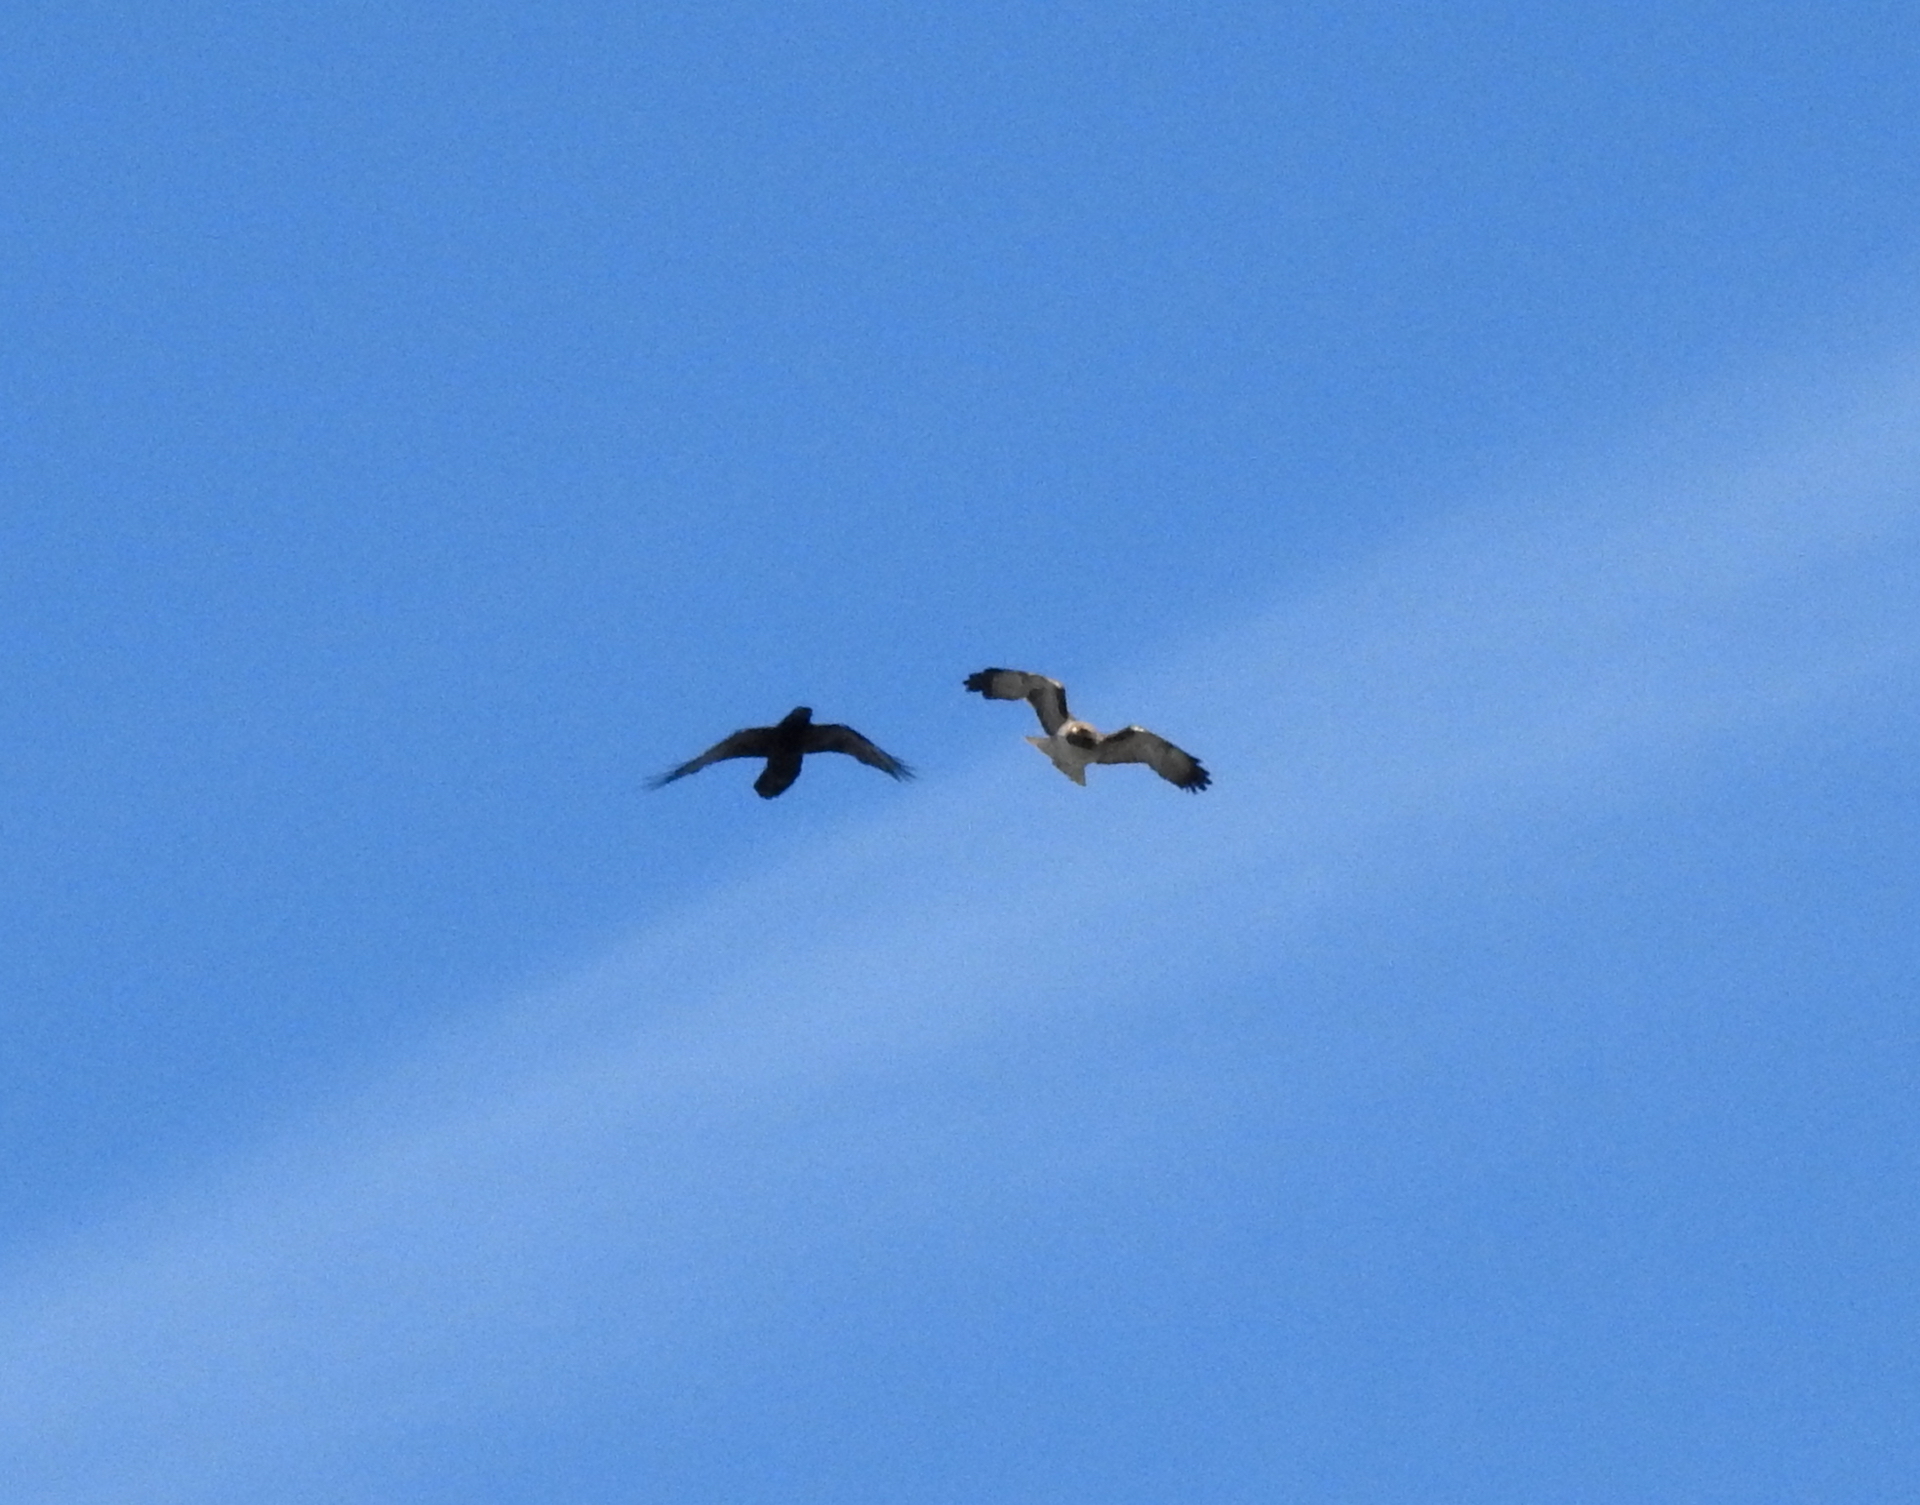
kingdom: Animalia
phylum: Chordata
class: Aves
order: Accipitriformes
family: Accipitridae
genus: Buteo
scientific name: Buteo jamaicensis
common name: Red-tailed hawk
